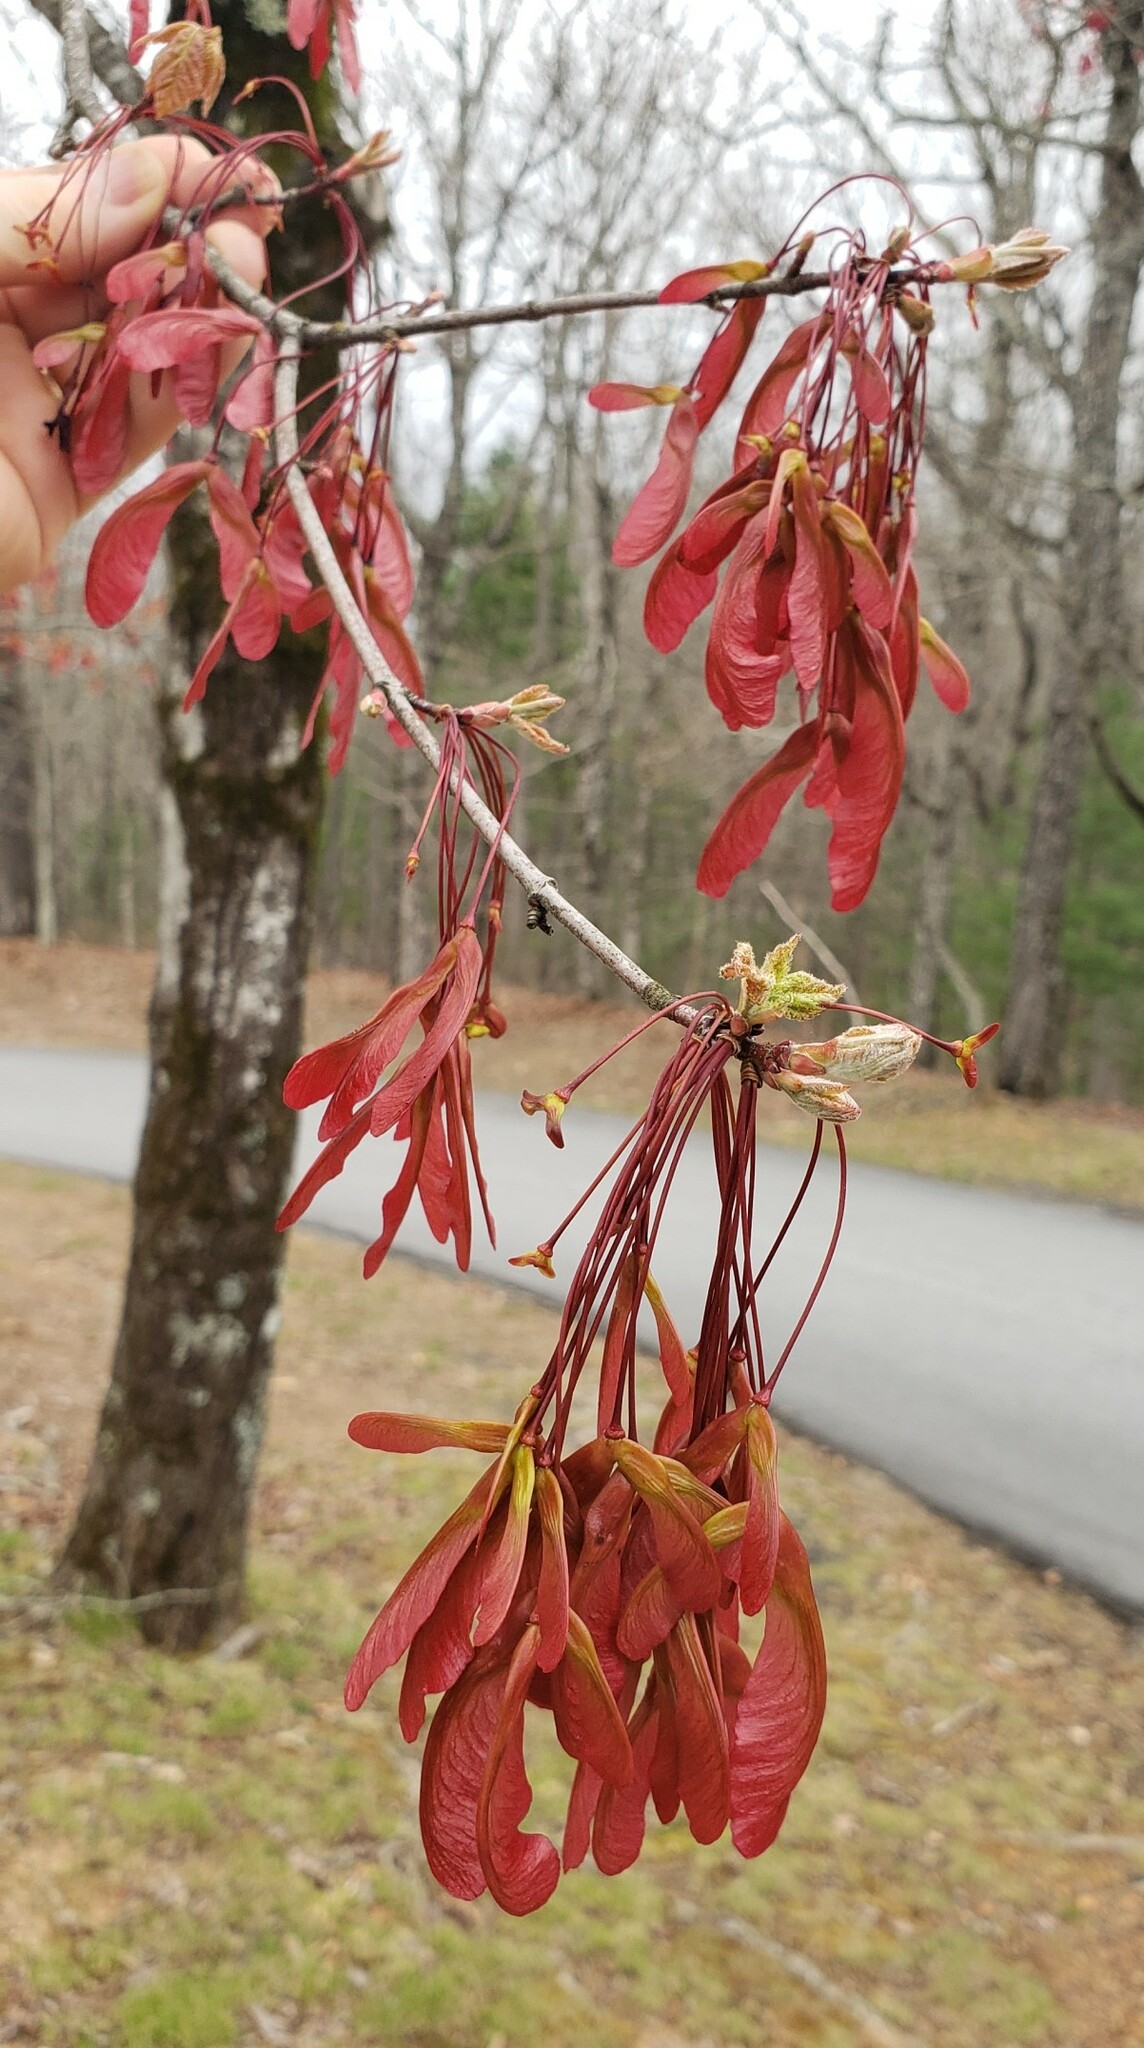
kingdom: Plantae
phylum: Tracheophyta
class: Magnoliopsida
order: Sapindales
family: Sapindaceae
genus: Acer
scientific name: Acer rubrum
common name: Red maple
